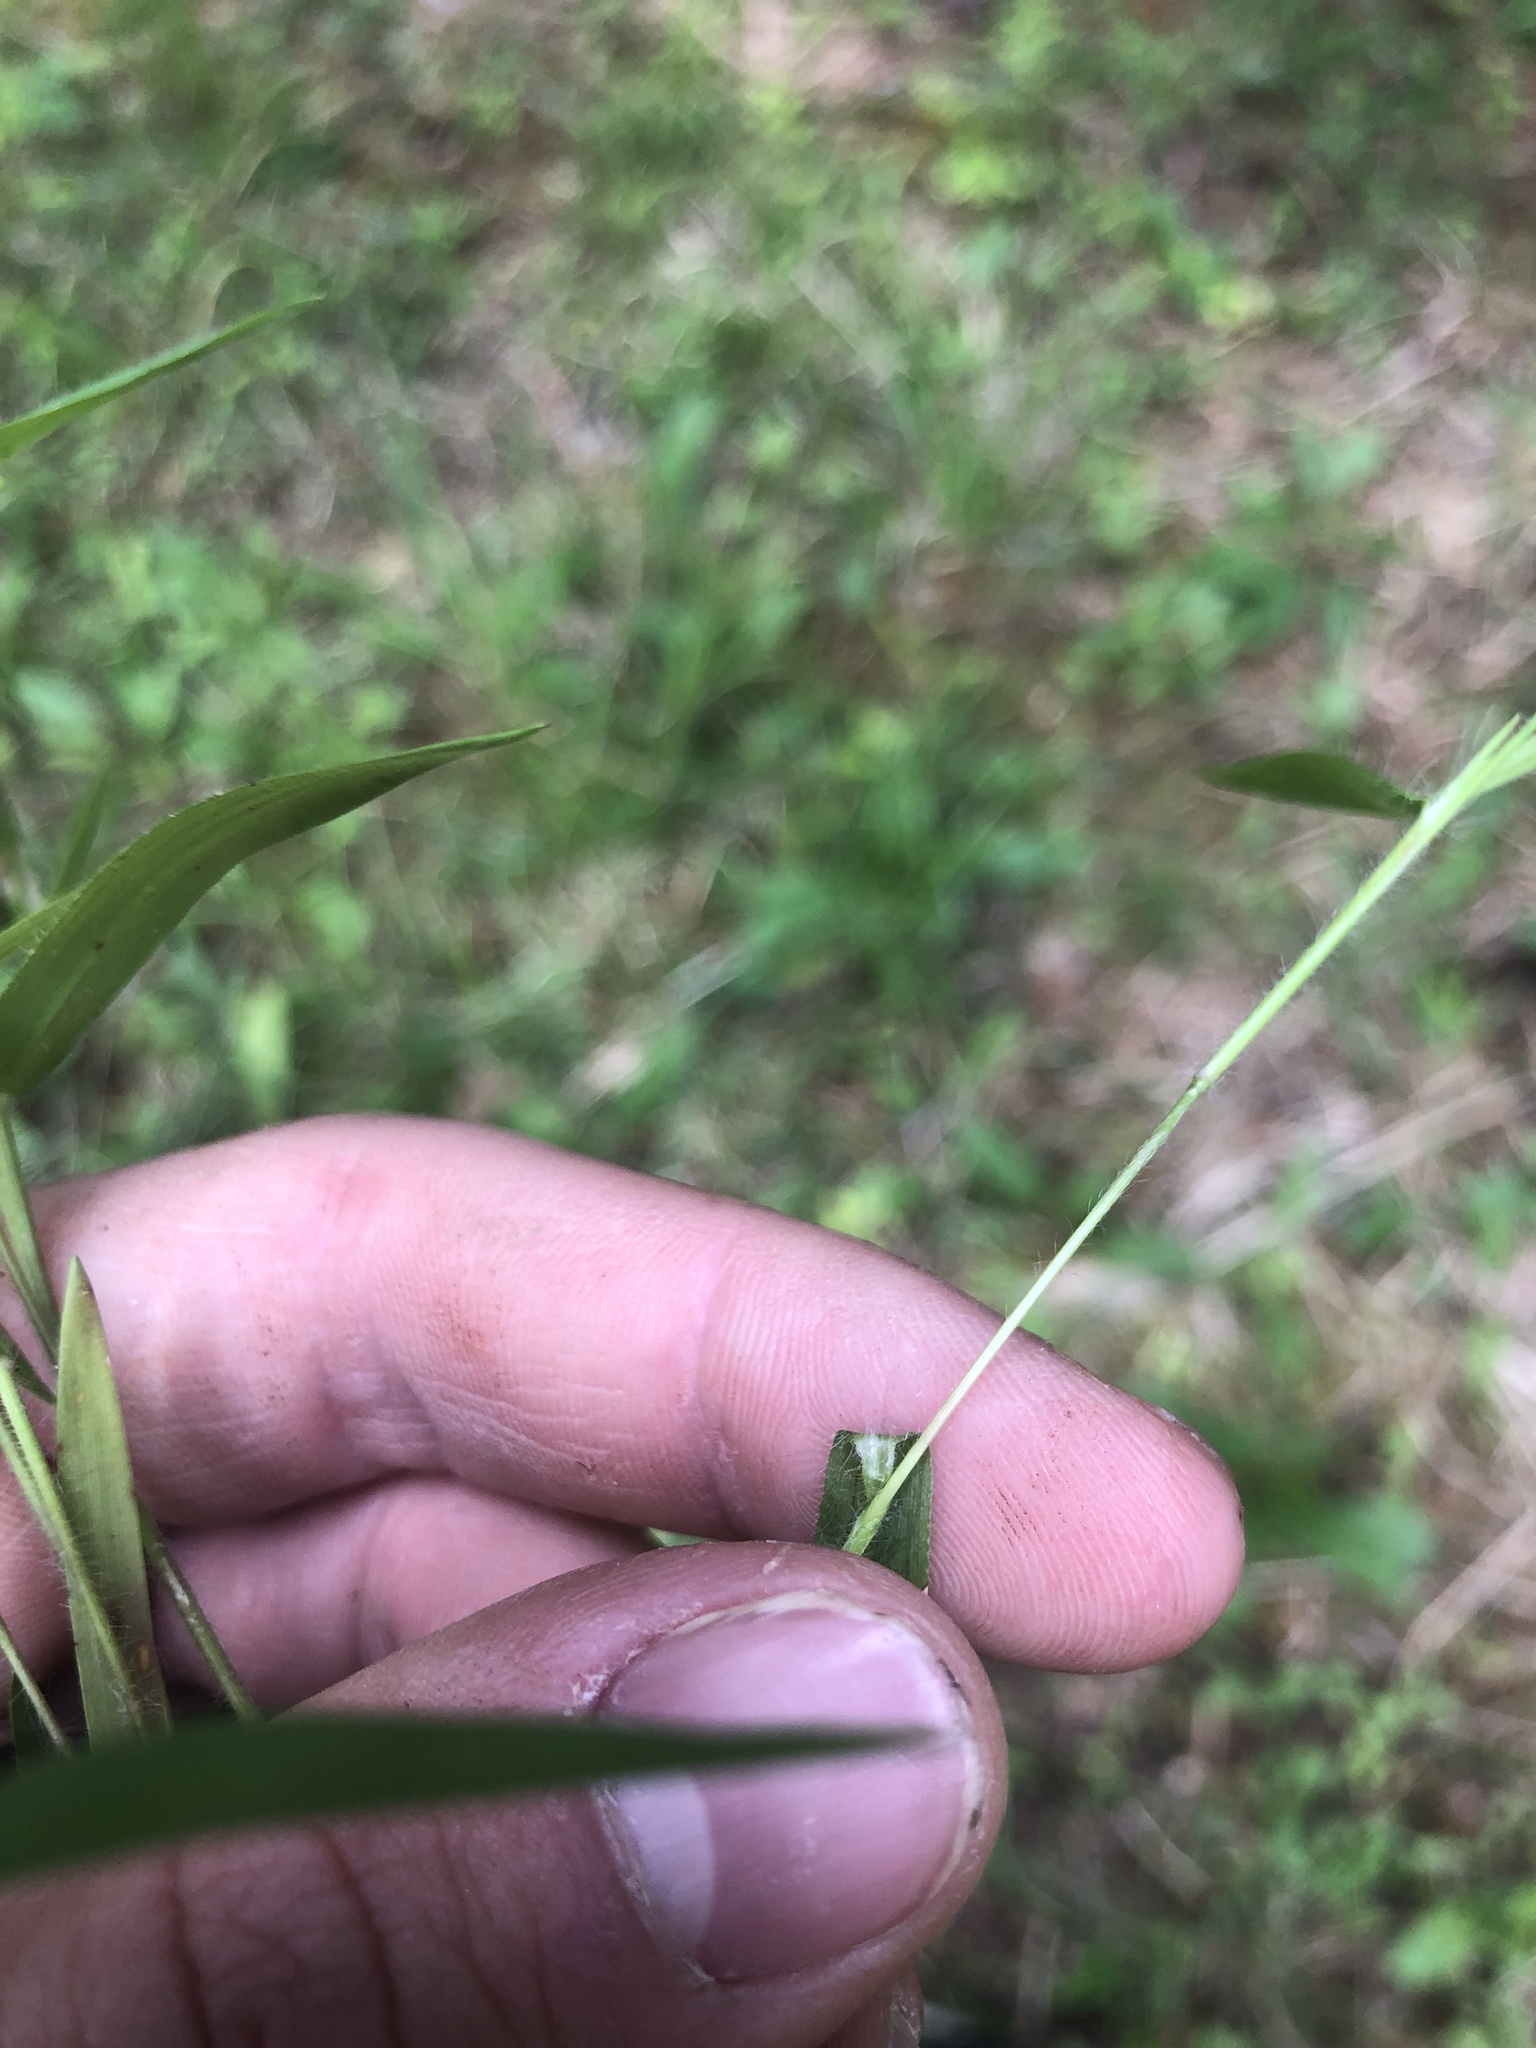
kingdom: Plantae
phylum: Tracheophyta
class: Liliopsida
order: Poales
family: Poaceae
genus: Dichanthelium
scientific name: Dichanthelium lanuginosum
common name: Woolly panicgrass
